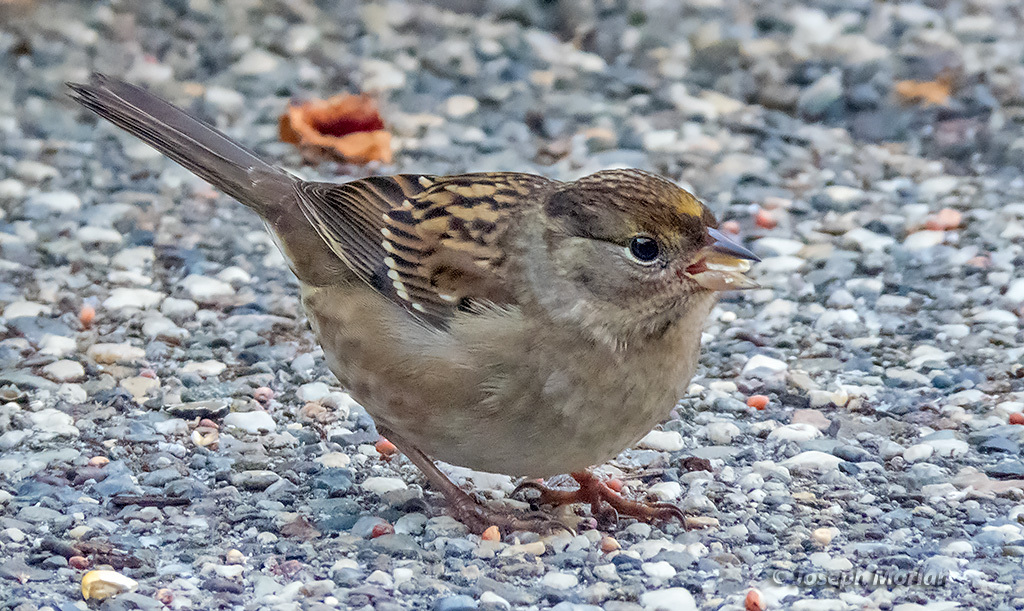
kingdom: Animalia
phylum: Chordata
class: Aves
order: Passeriformes
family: Passerellidae
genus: Zonotrichia
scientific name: Zonotrichia atricapilla
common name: Golden-crowned sparrow
